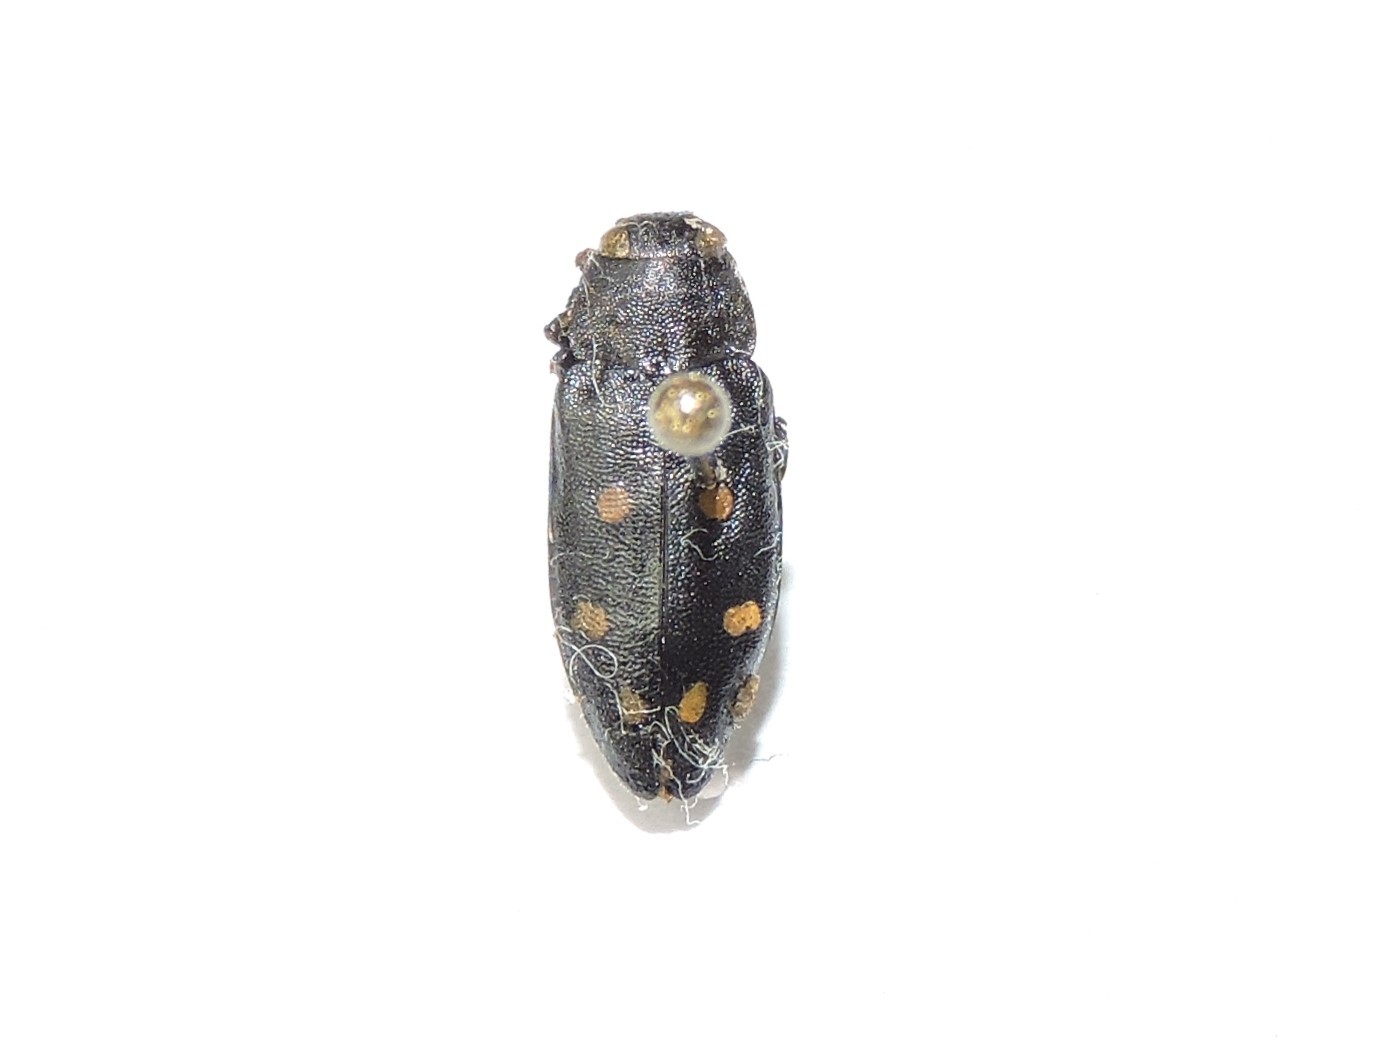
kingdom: Animalia
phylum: Arthropoda
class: Insecta
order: Coleoptera
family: Buprestidae
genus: Phaenops
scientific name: Phaenops guttulata
